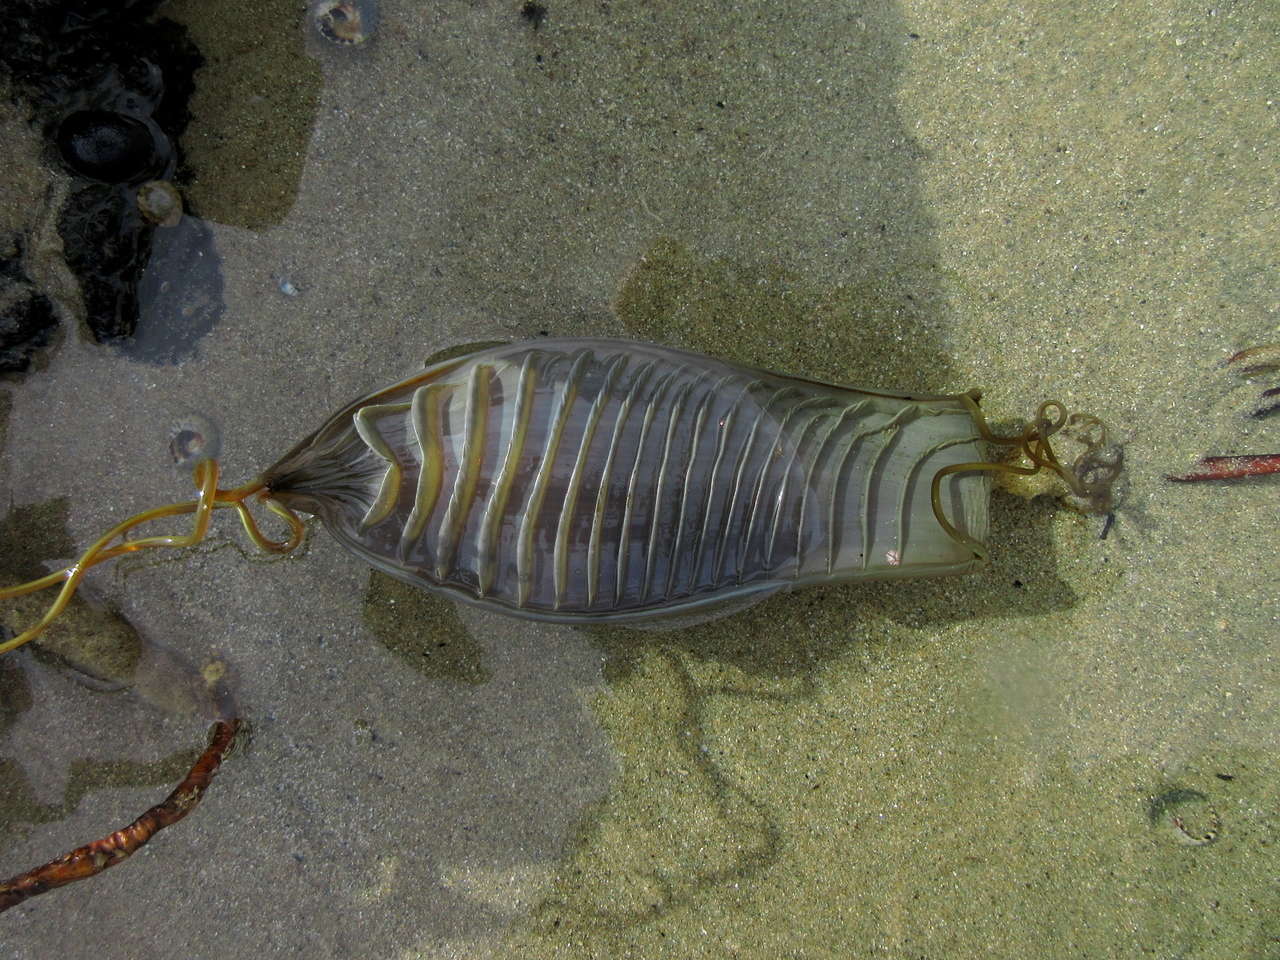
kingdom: Animalia
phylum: Chordata
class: Elasmobranchii
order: Carcharhiniformes
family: Scyliorhinidae
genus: Cephaloscyllium
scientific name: Cephaloscyllium laticeps
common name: Australian swellshark
